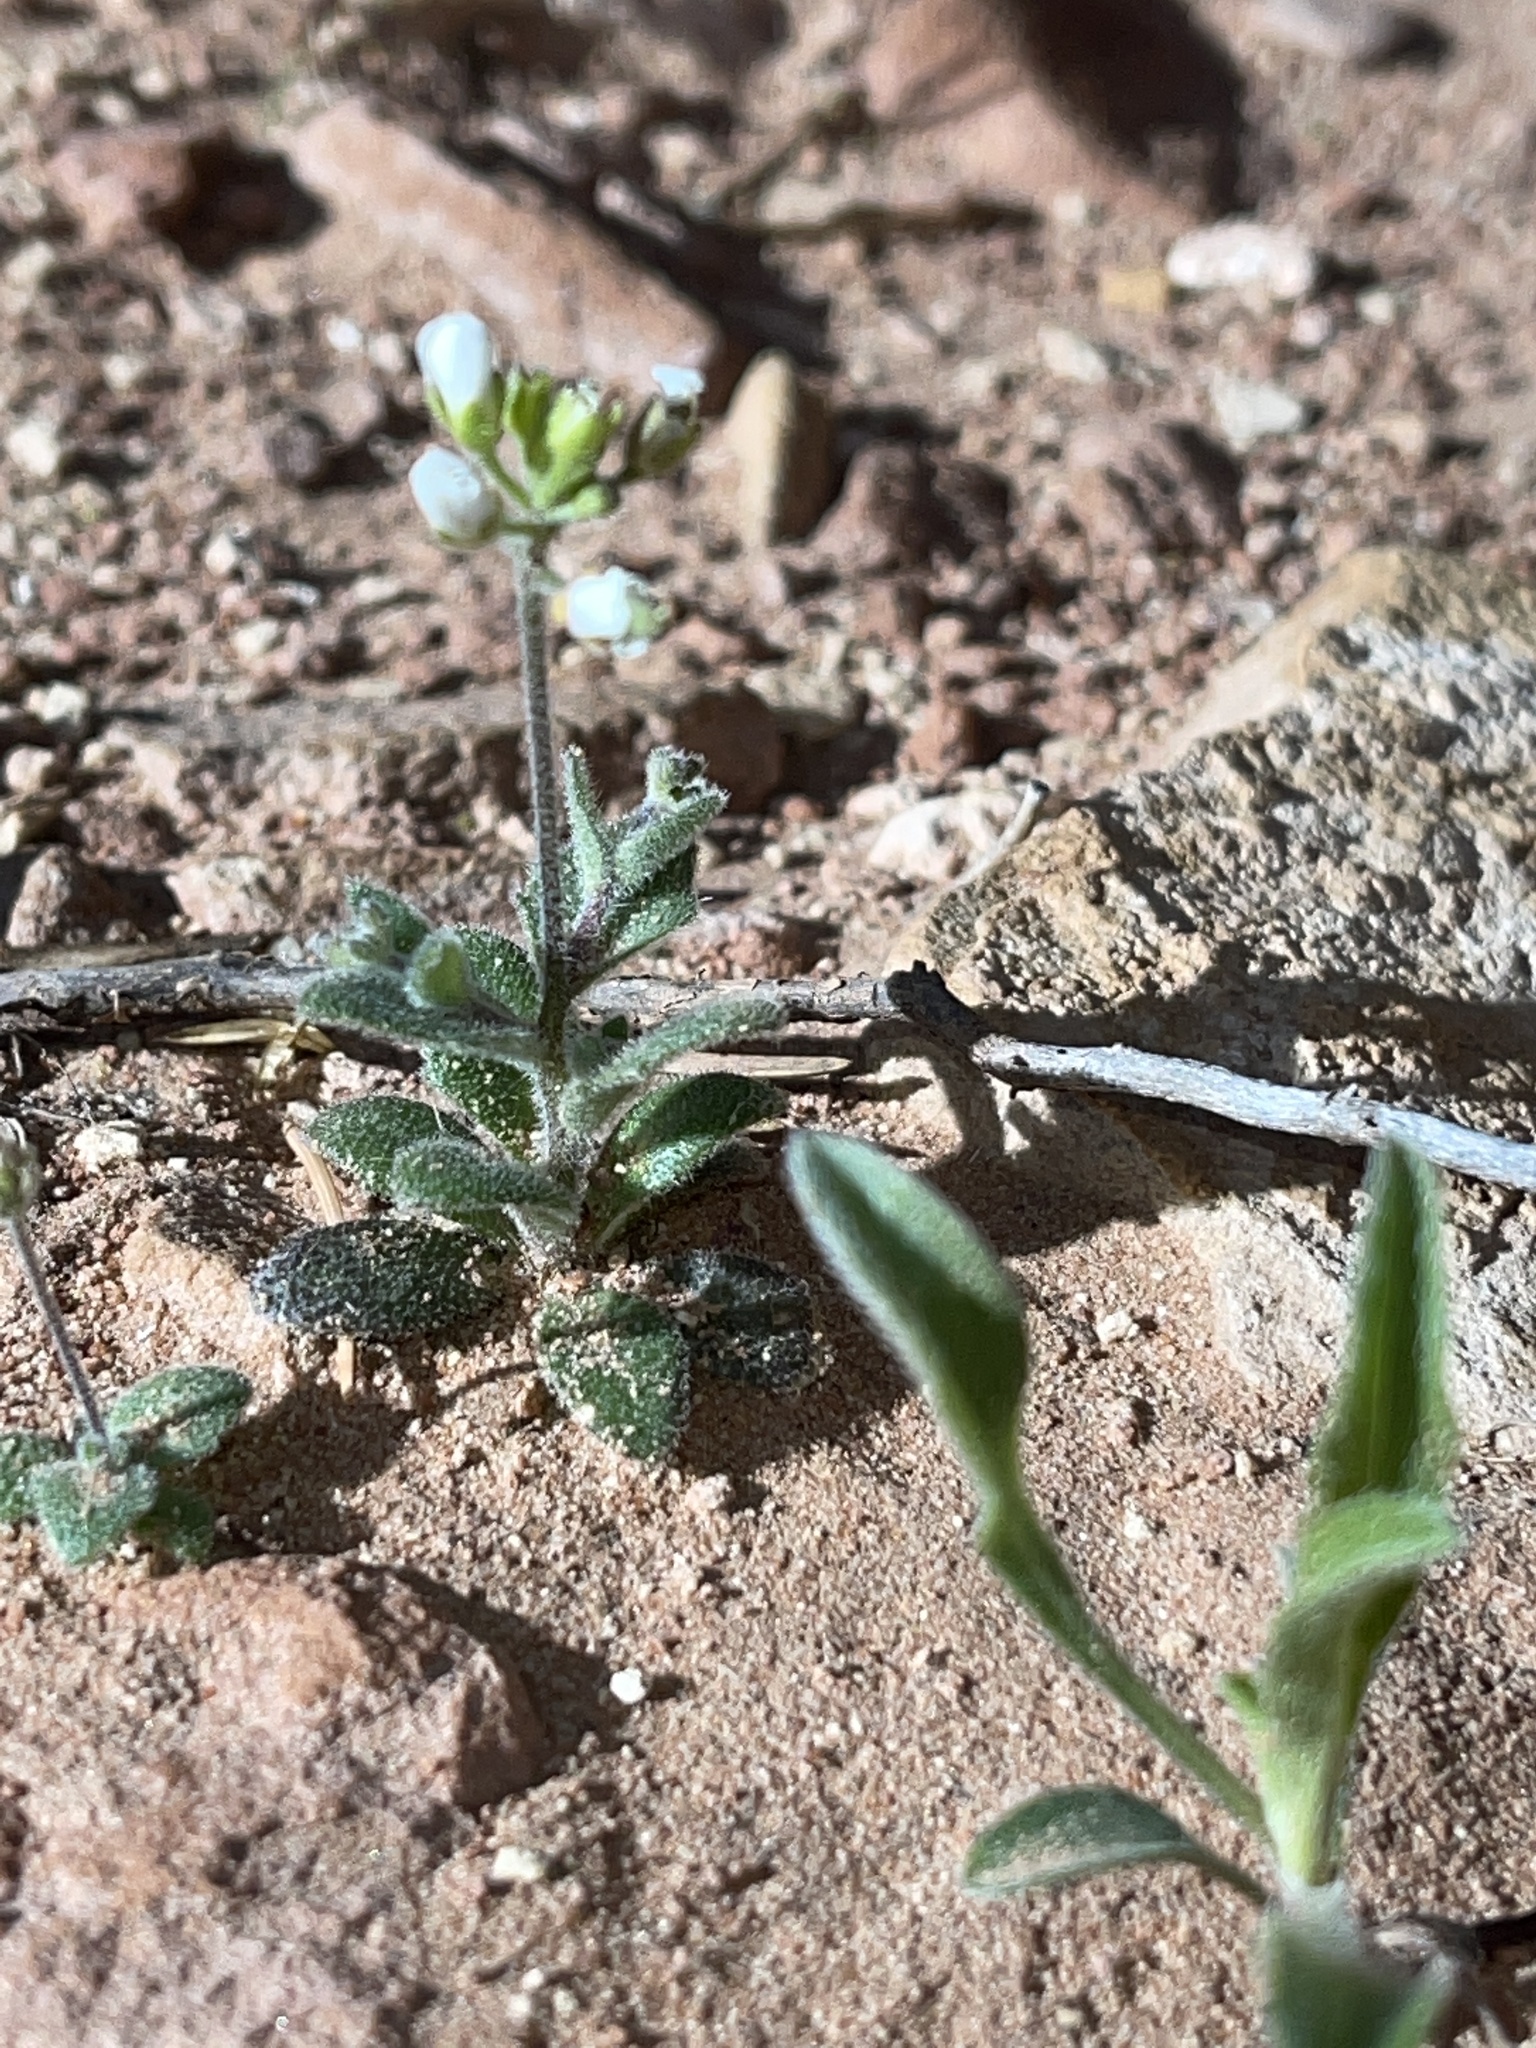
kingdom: Plantae
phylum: Tracheophyta
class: Magnoliopsida
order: Brassicales
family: Brassicaceae
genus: Tomostima
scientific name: Tomostima cuneifolia
